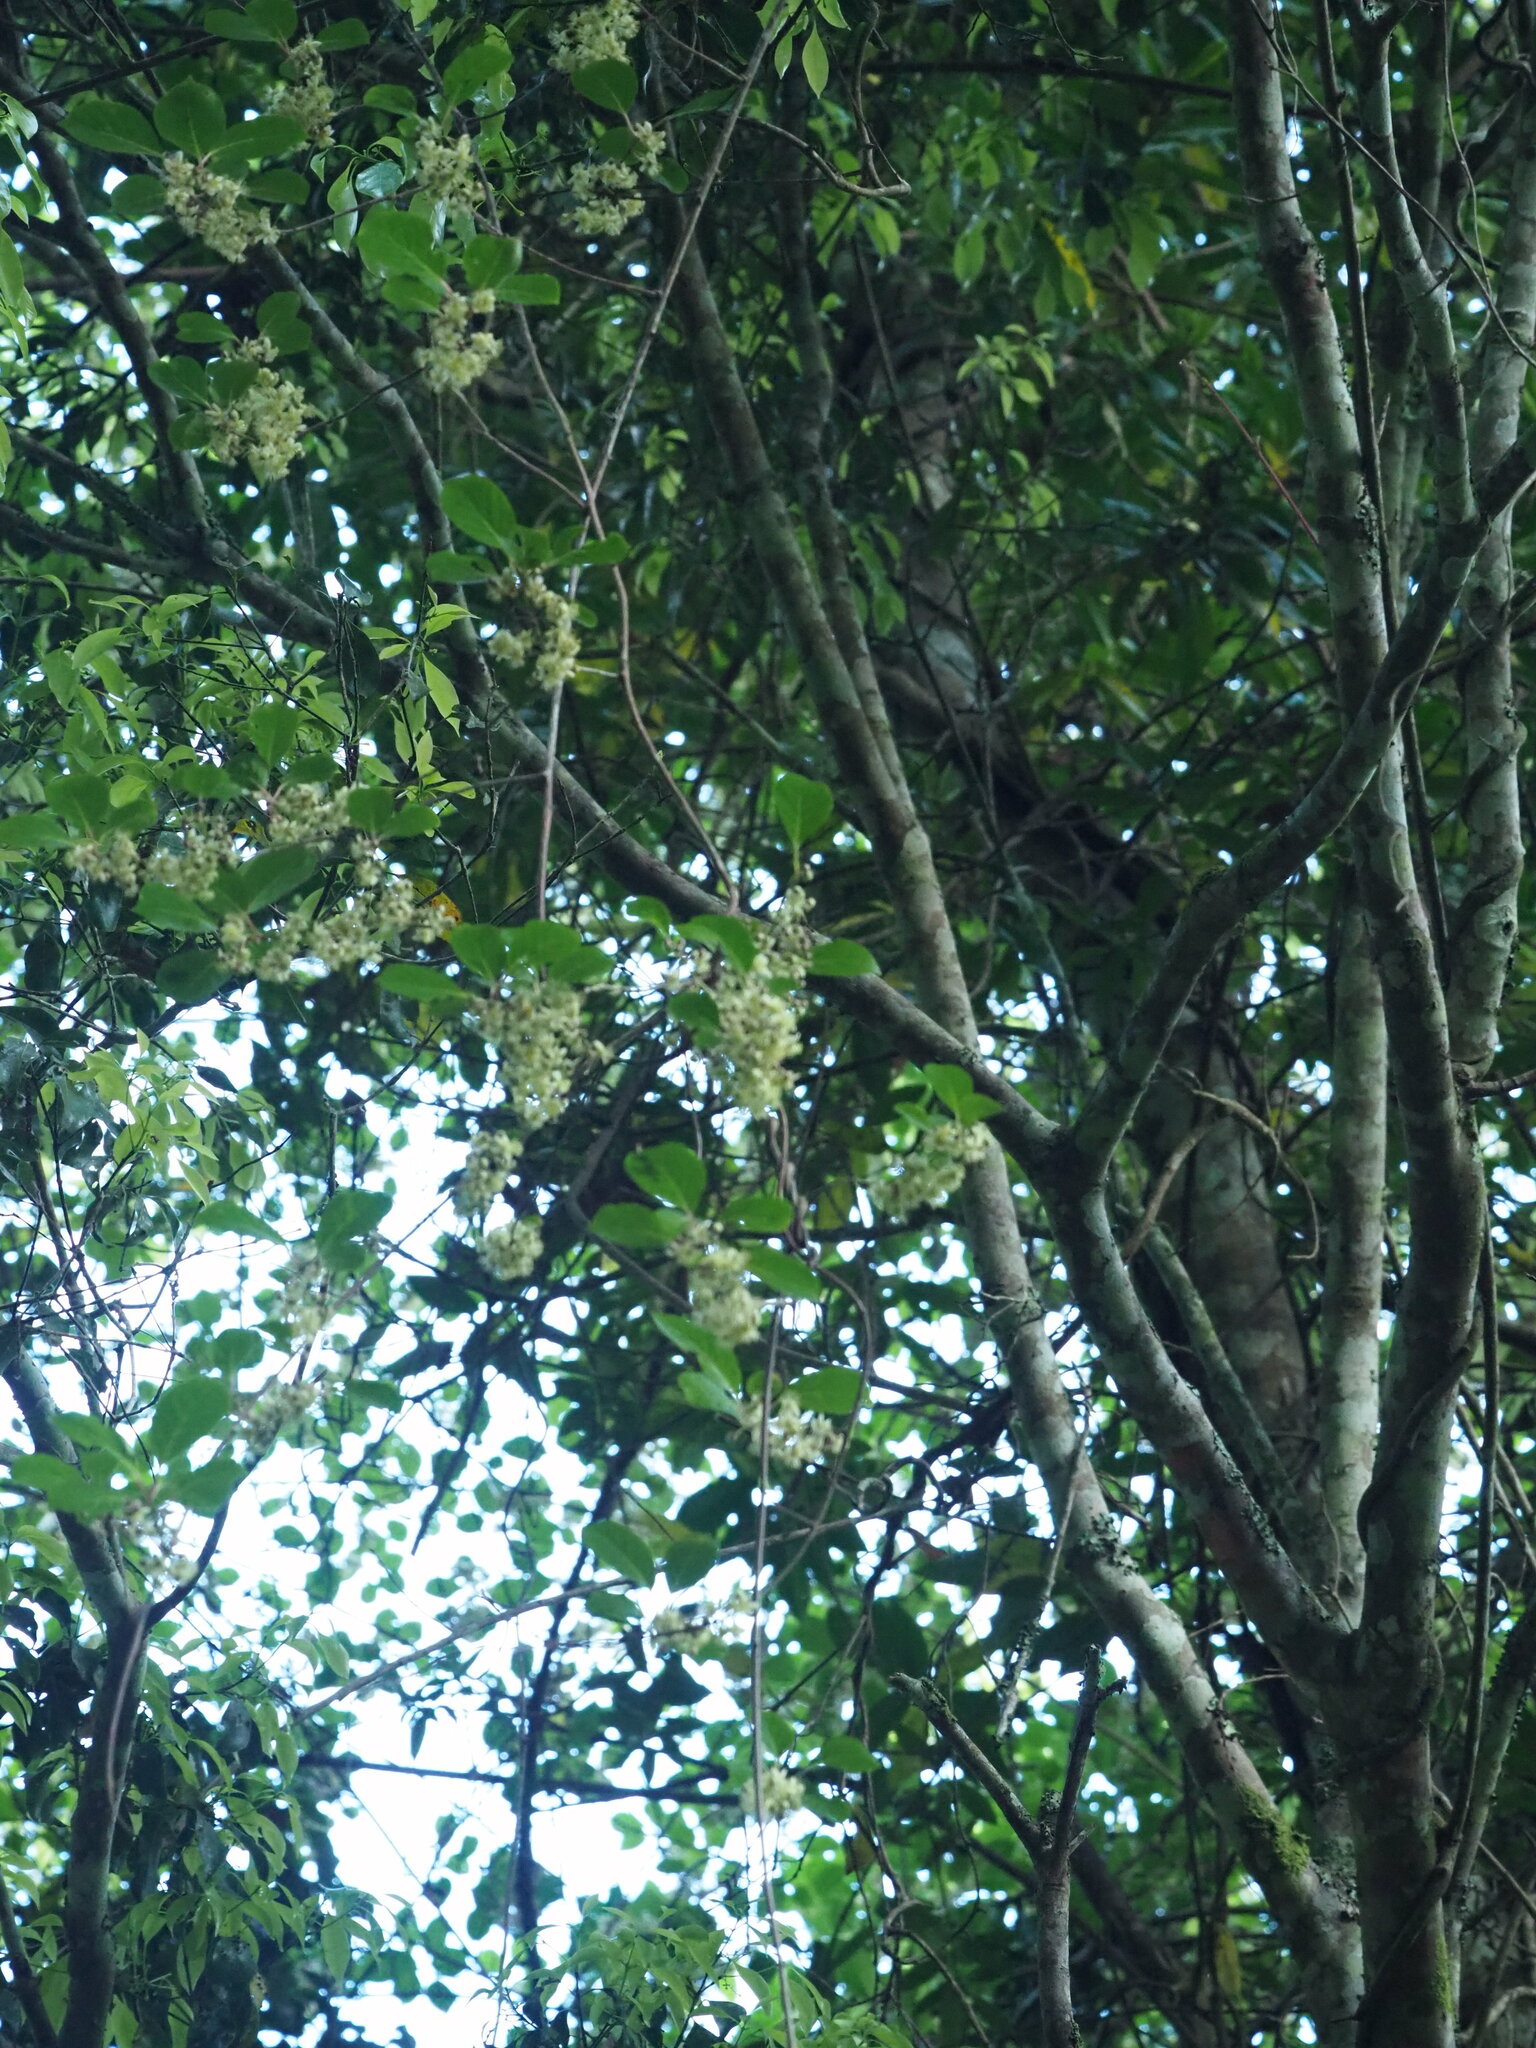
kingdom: Plantae
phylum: Tracheophyta
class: Magnoliopsida
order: Ericales
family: Actinidiaceae
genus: Actinidia
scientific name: Actinidia rufa
